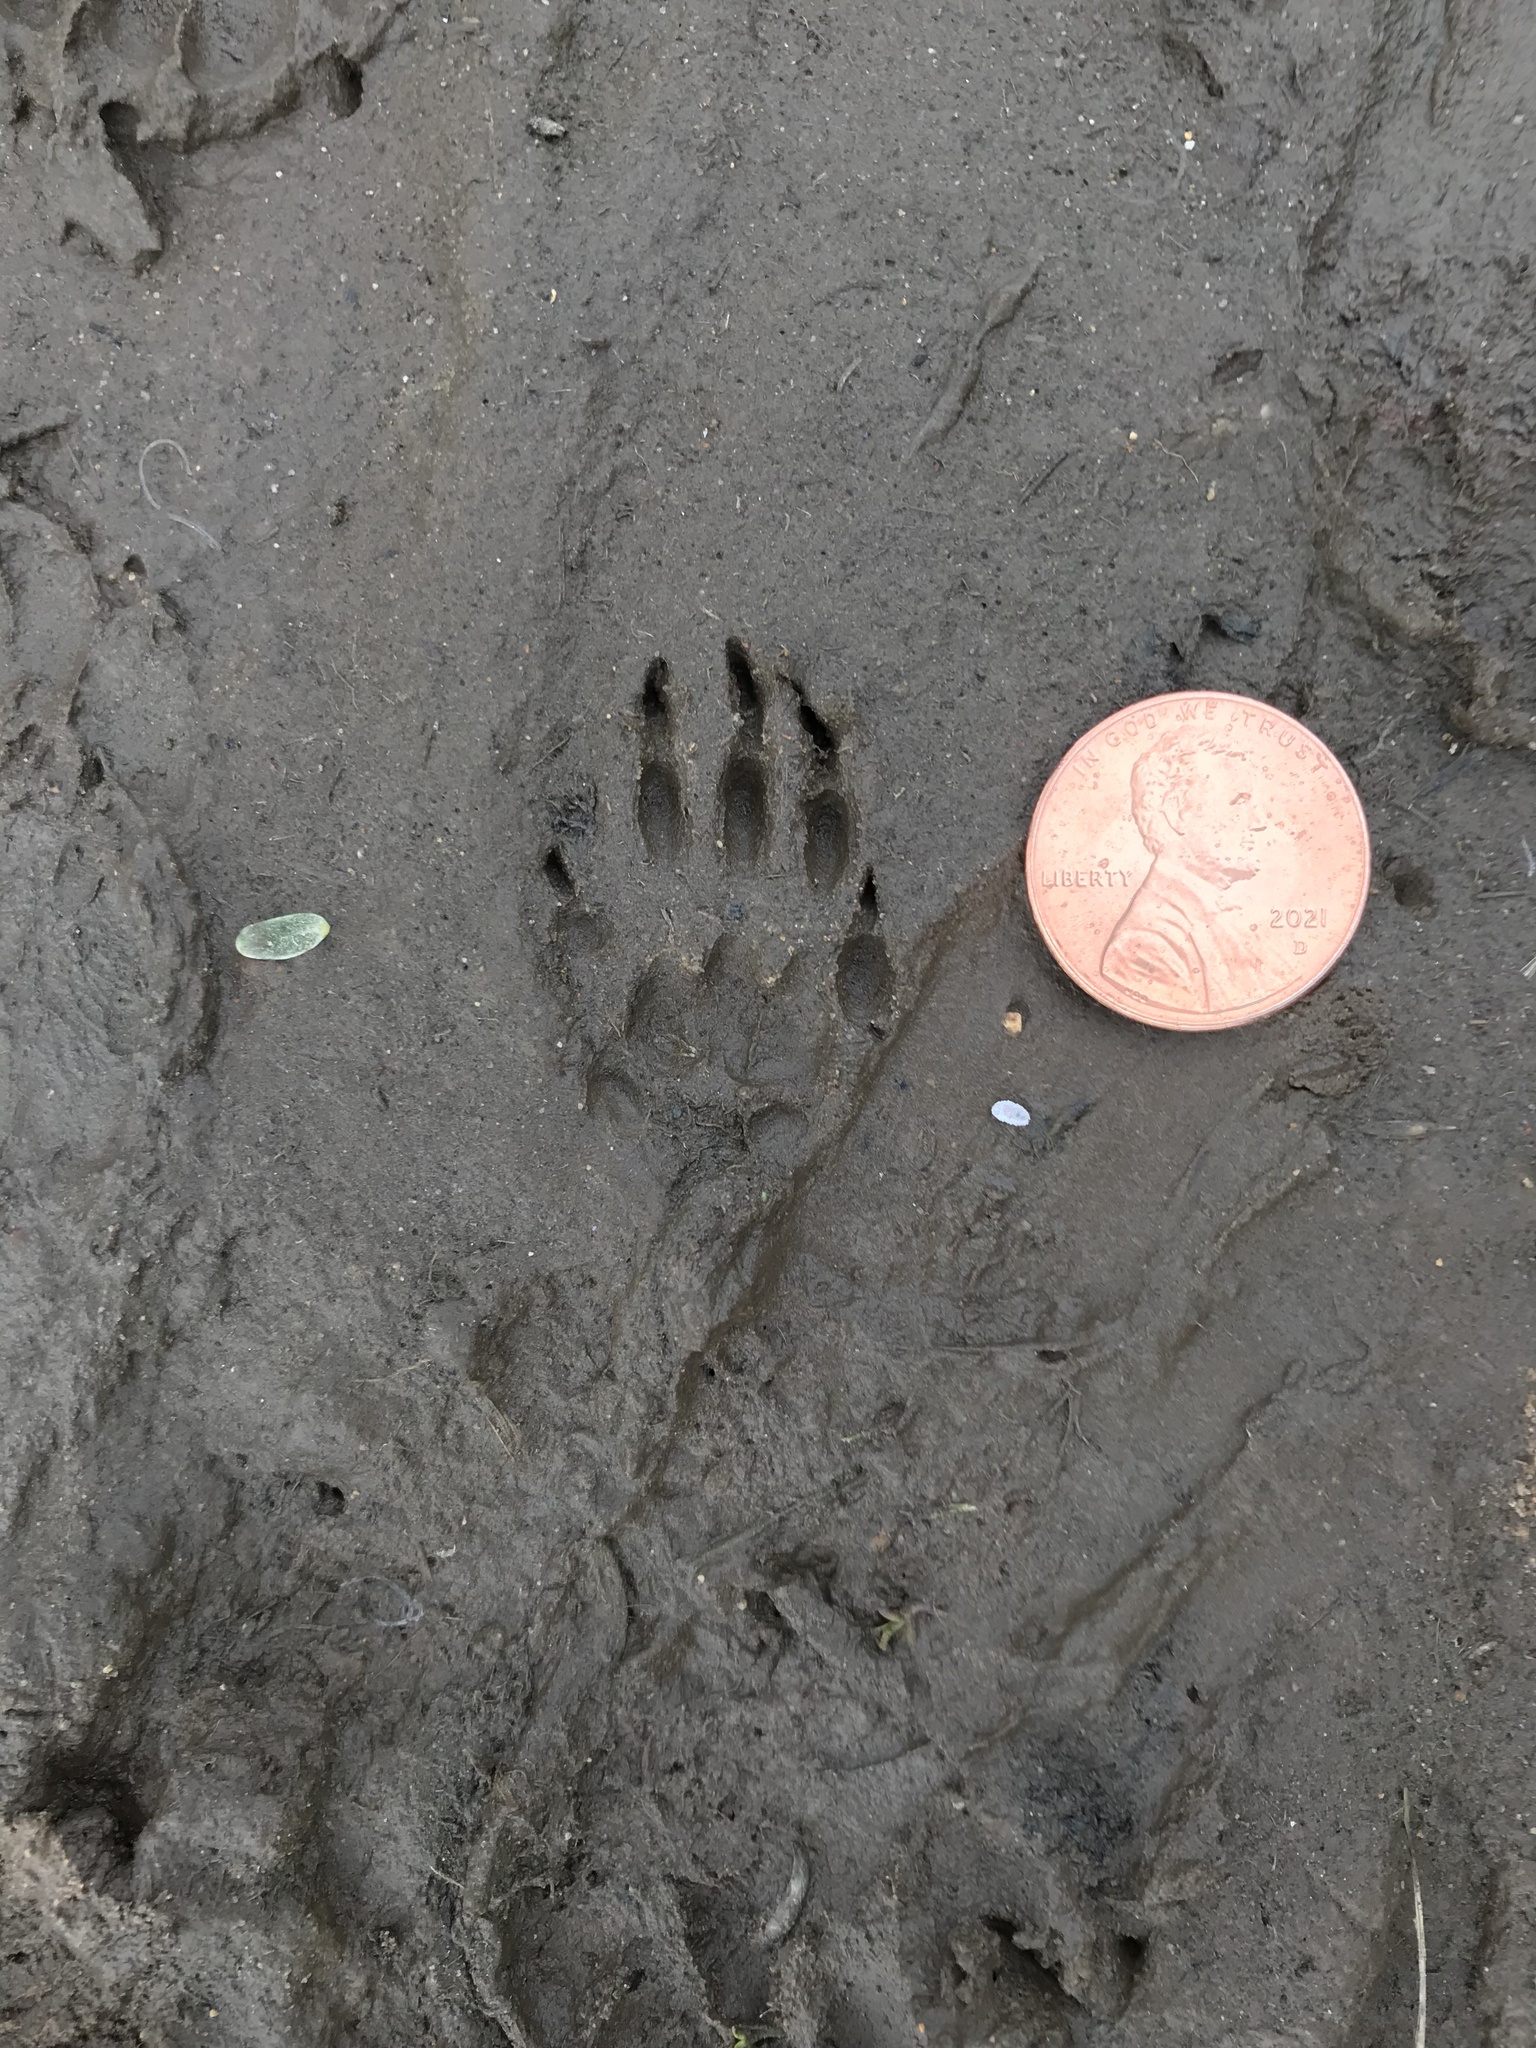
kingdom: Animalia
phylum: Chordata
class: Mammalia
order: Rodentia
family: Sciuridae
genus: Otospermophilus
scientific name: Otospermophilus beecheyi
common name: California ground squirrel
